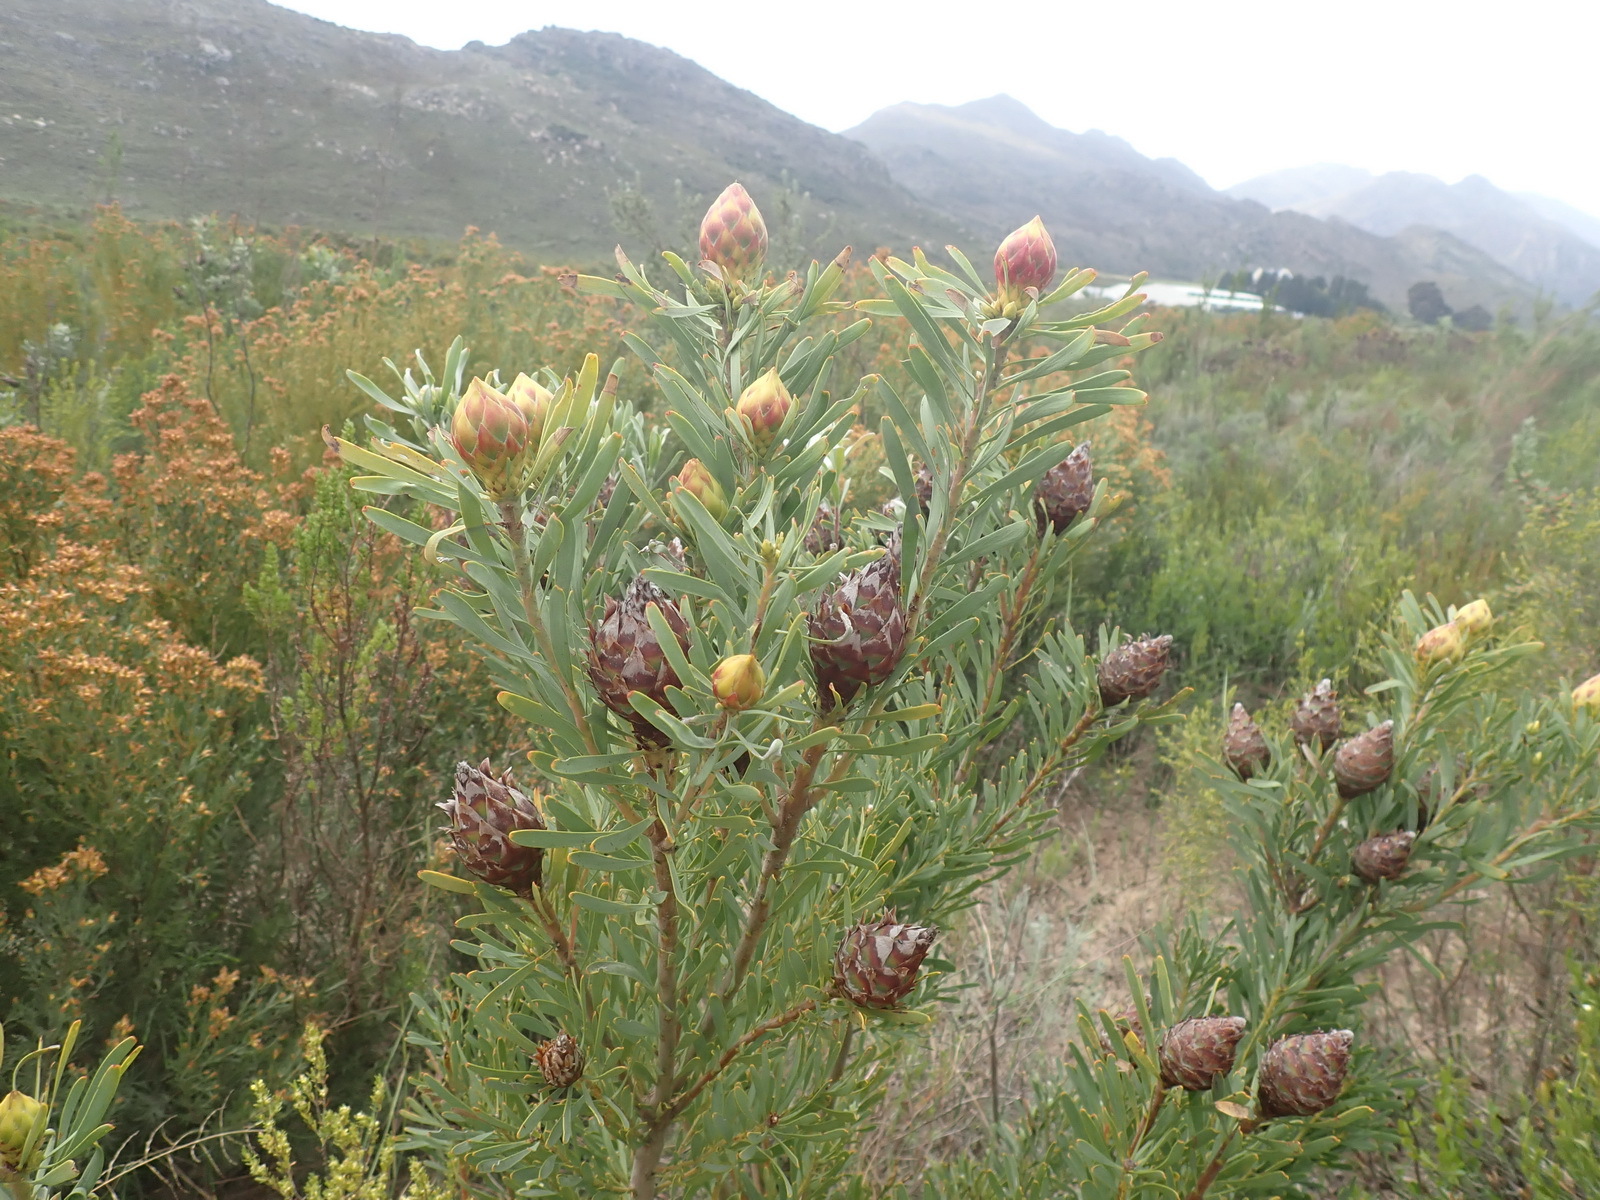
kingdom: Plantae
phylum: Tracheophyta
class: Magnoliopsida
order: Proteales
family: Proteaceae
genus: Leucadendron
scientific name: Leucadendron rubrum
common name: Spinning top
